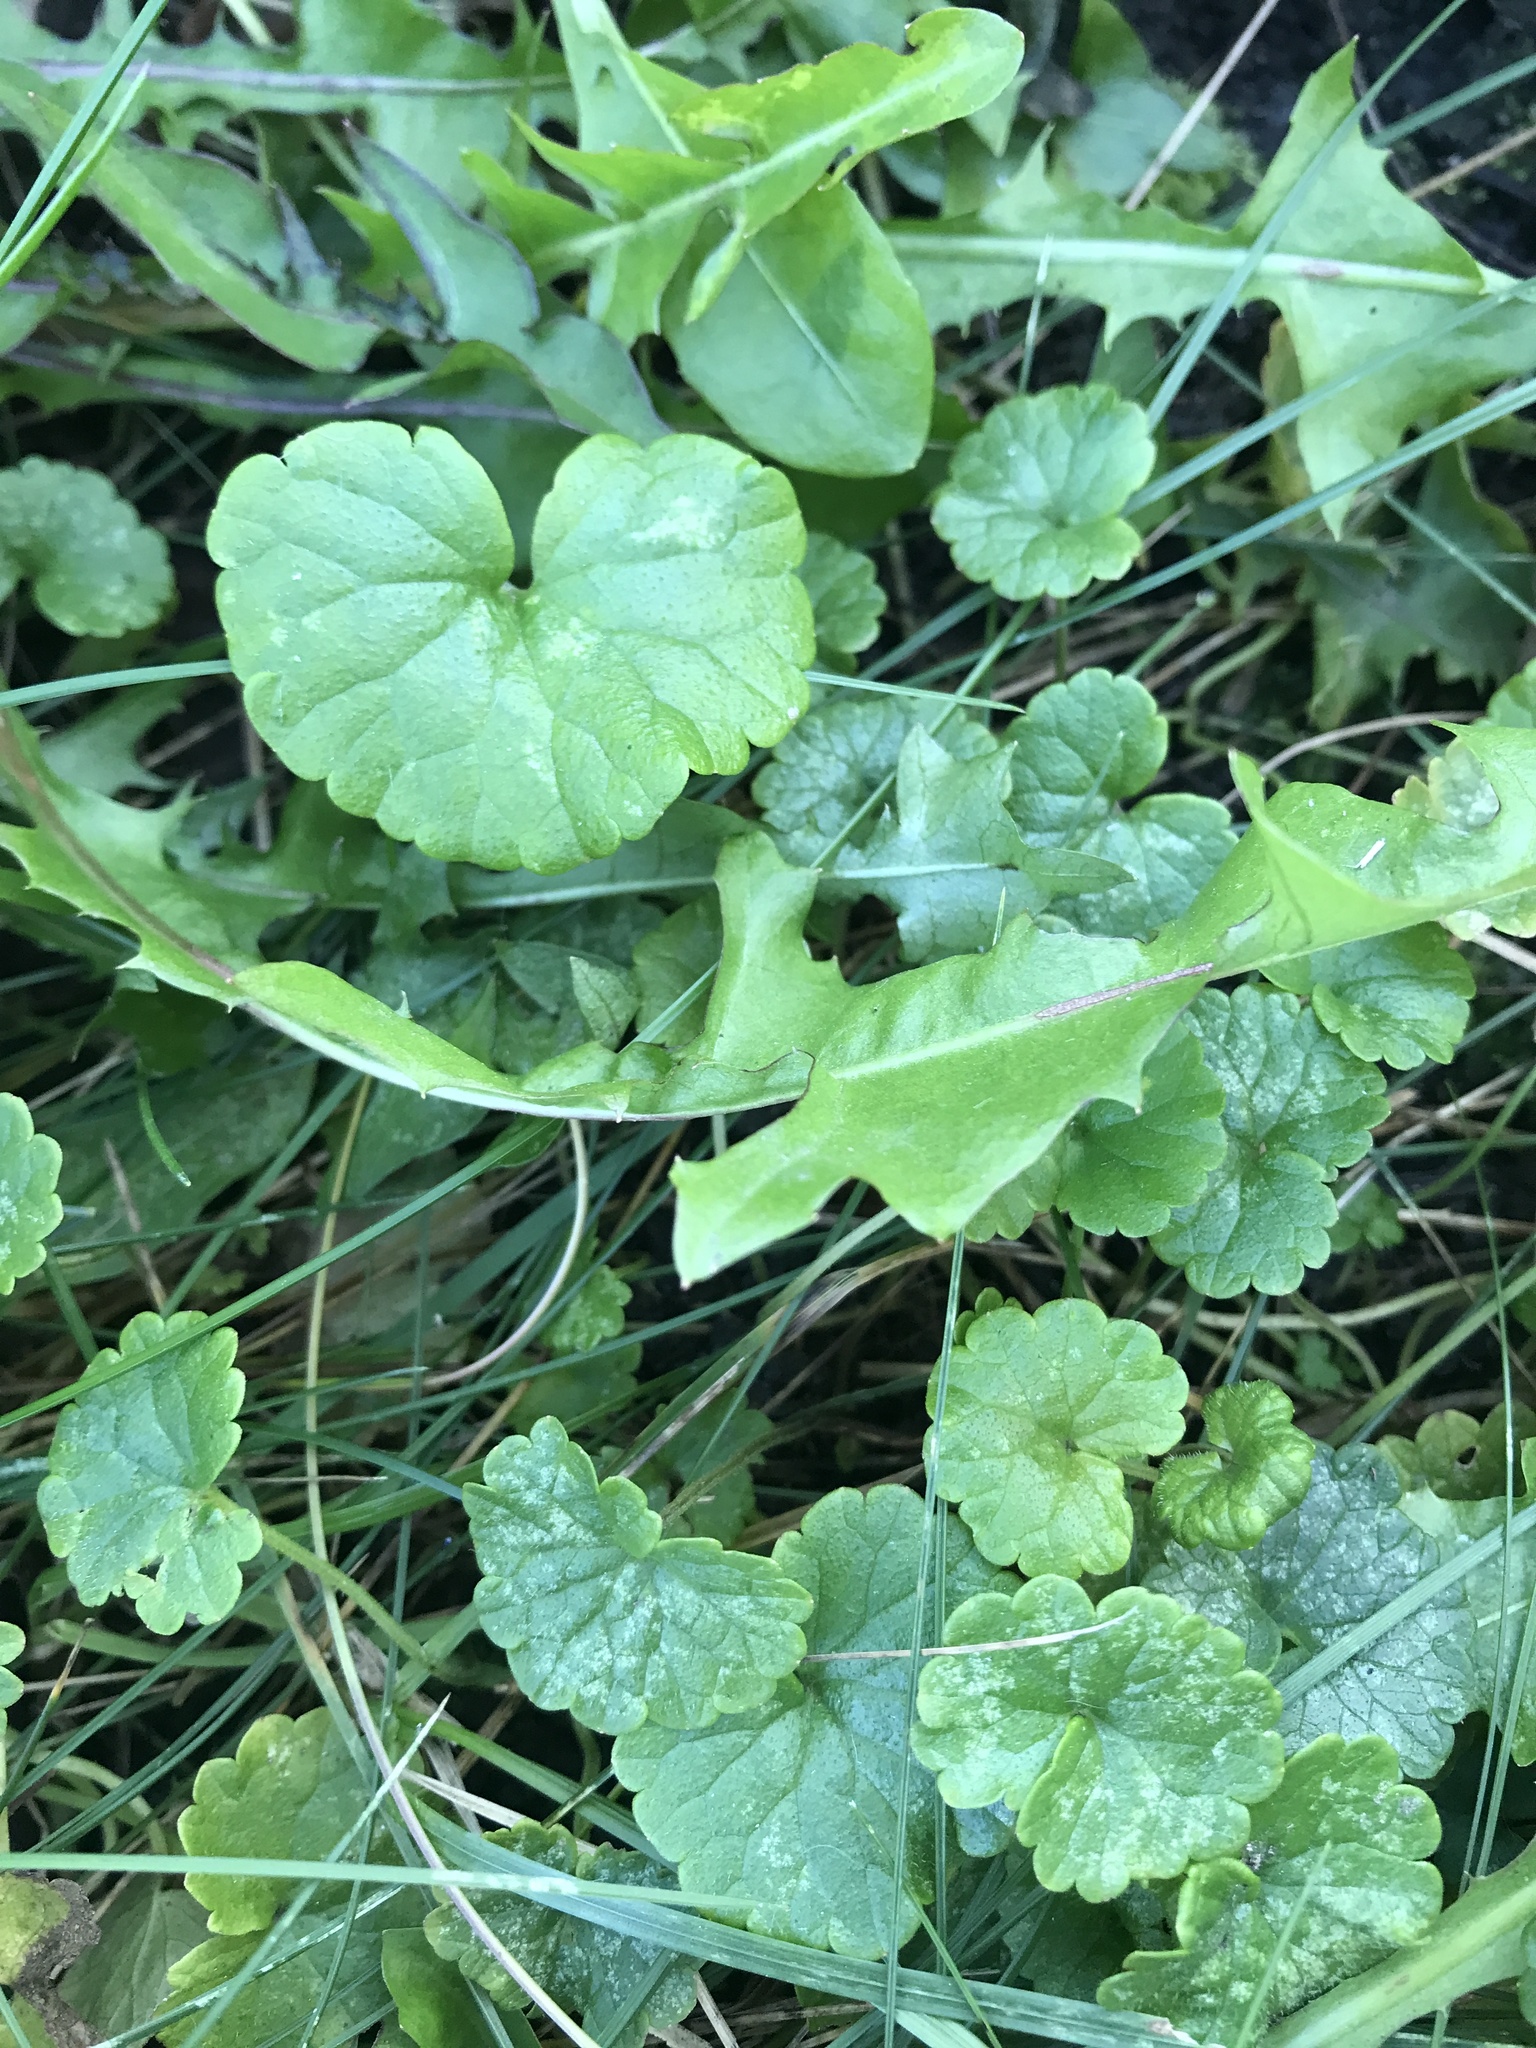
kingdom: Plantae
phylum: Tracheophyta
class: Magnoliopsida
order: Lamiales
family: Lamiaceae
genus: Glechoma
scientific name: Glechoma hederacea
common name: Ground ivy
